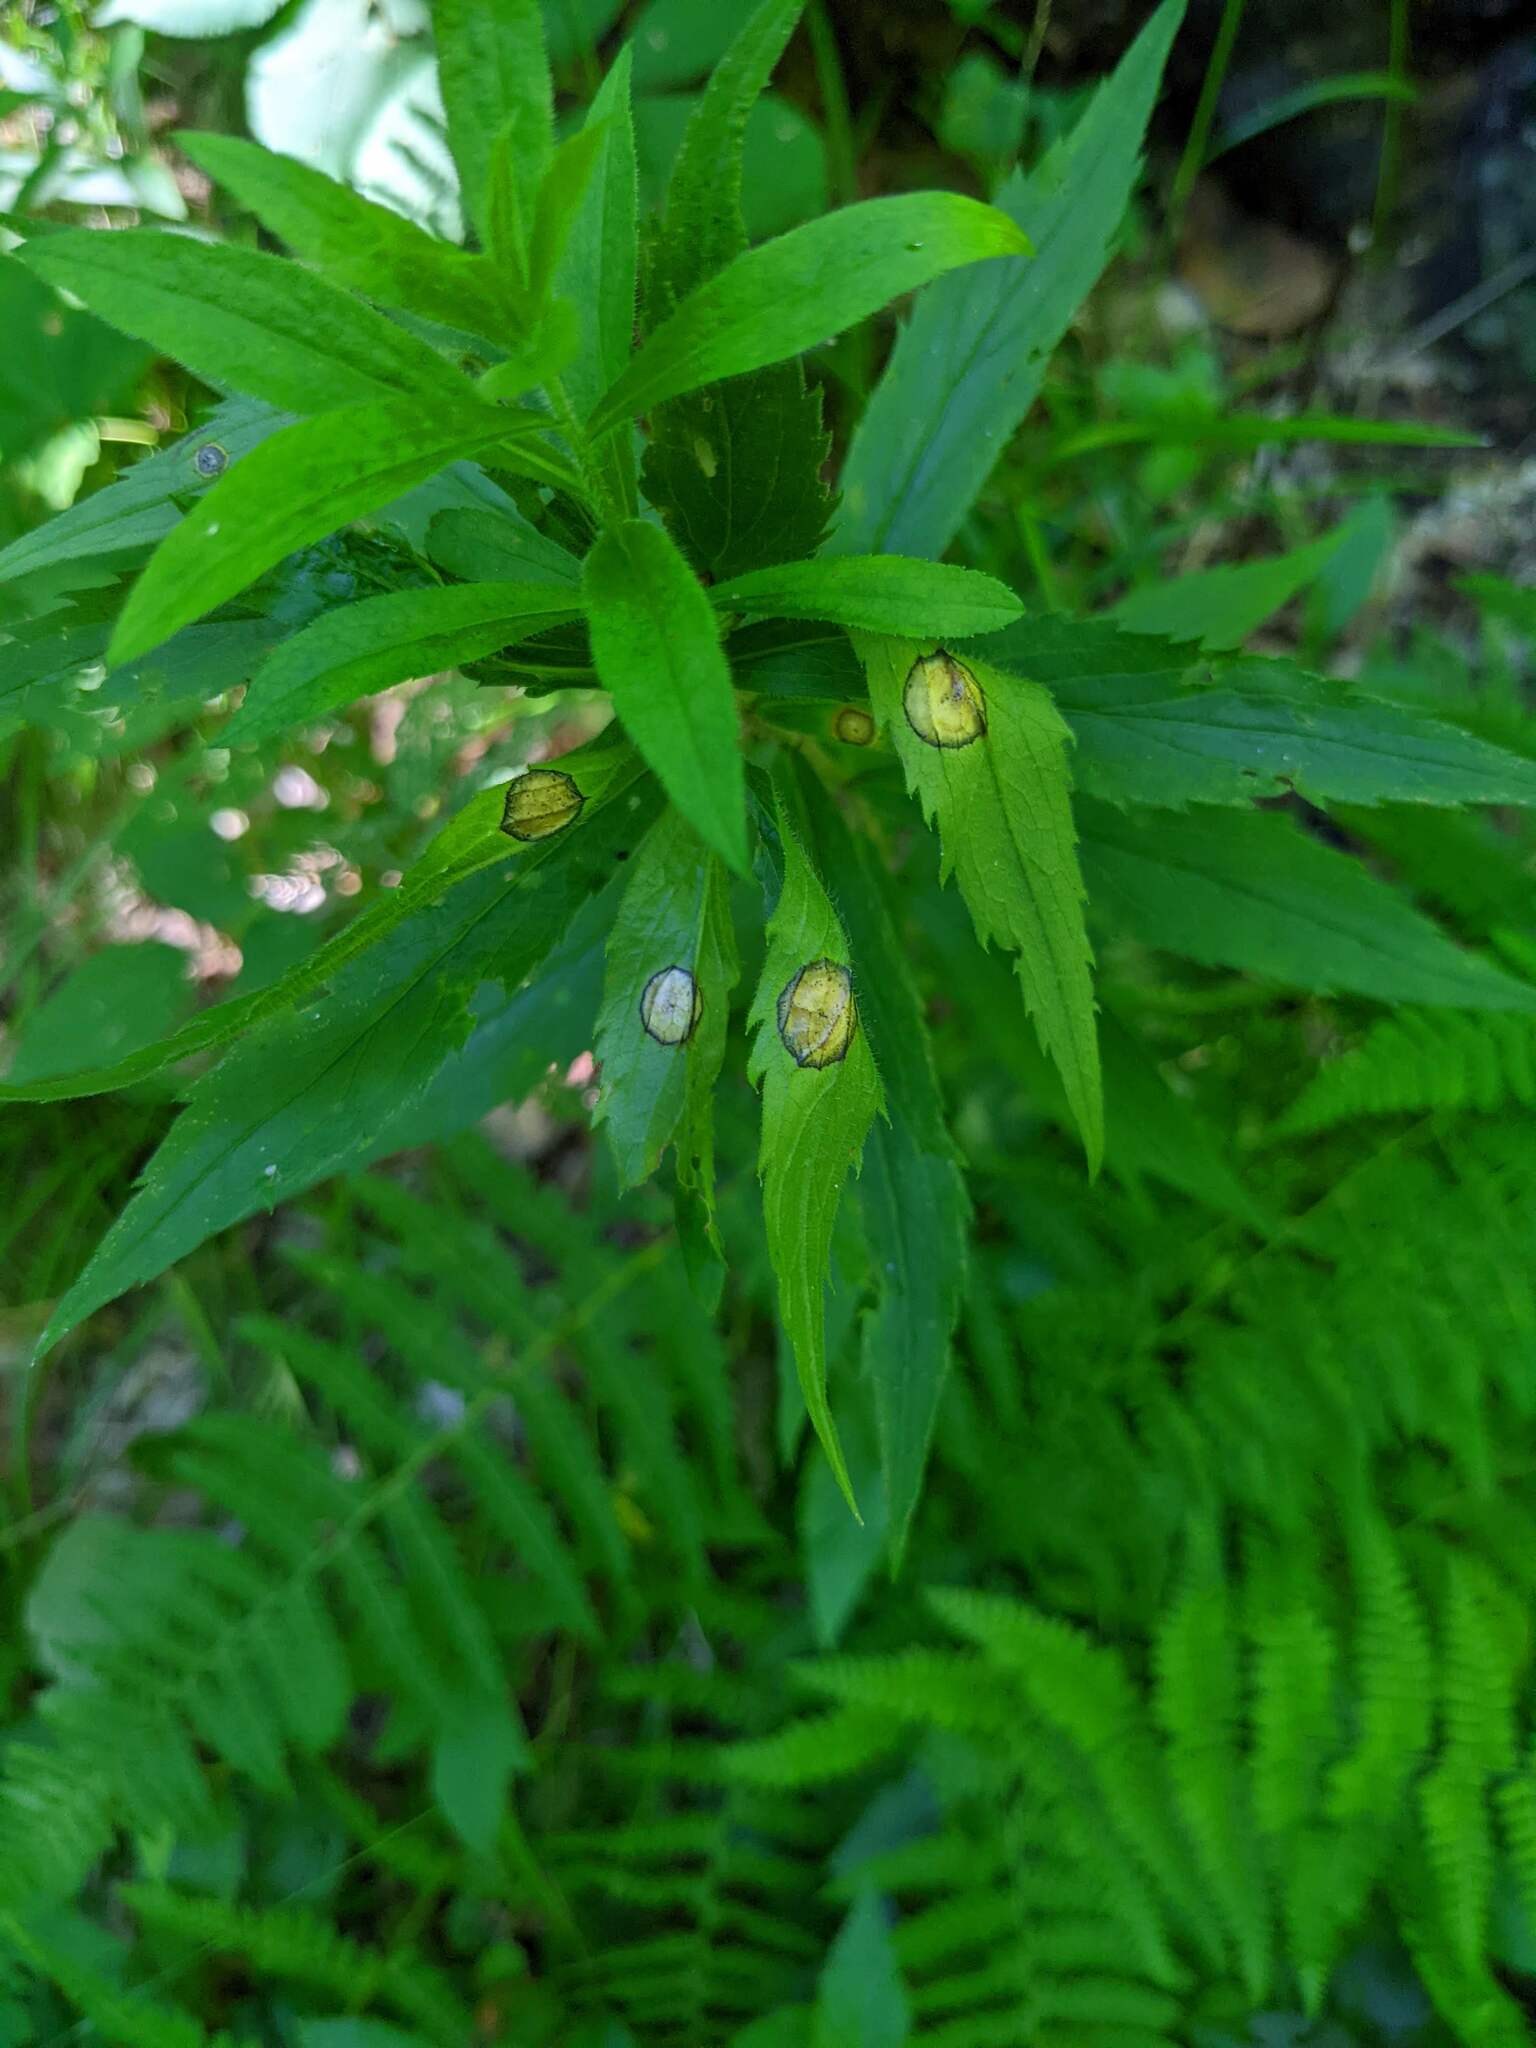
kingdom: Animalia
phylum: Arthropoda
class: Insecta
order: Diptera
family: Cecidomyiidae
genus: Asteromyia
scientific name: Asteromyia carbonifera
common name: Carbonifera goldenrod gall midge
